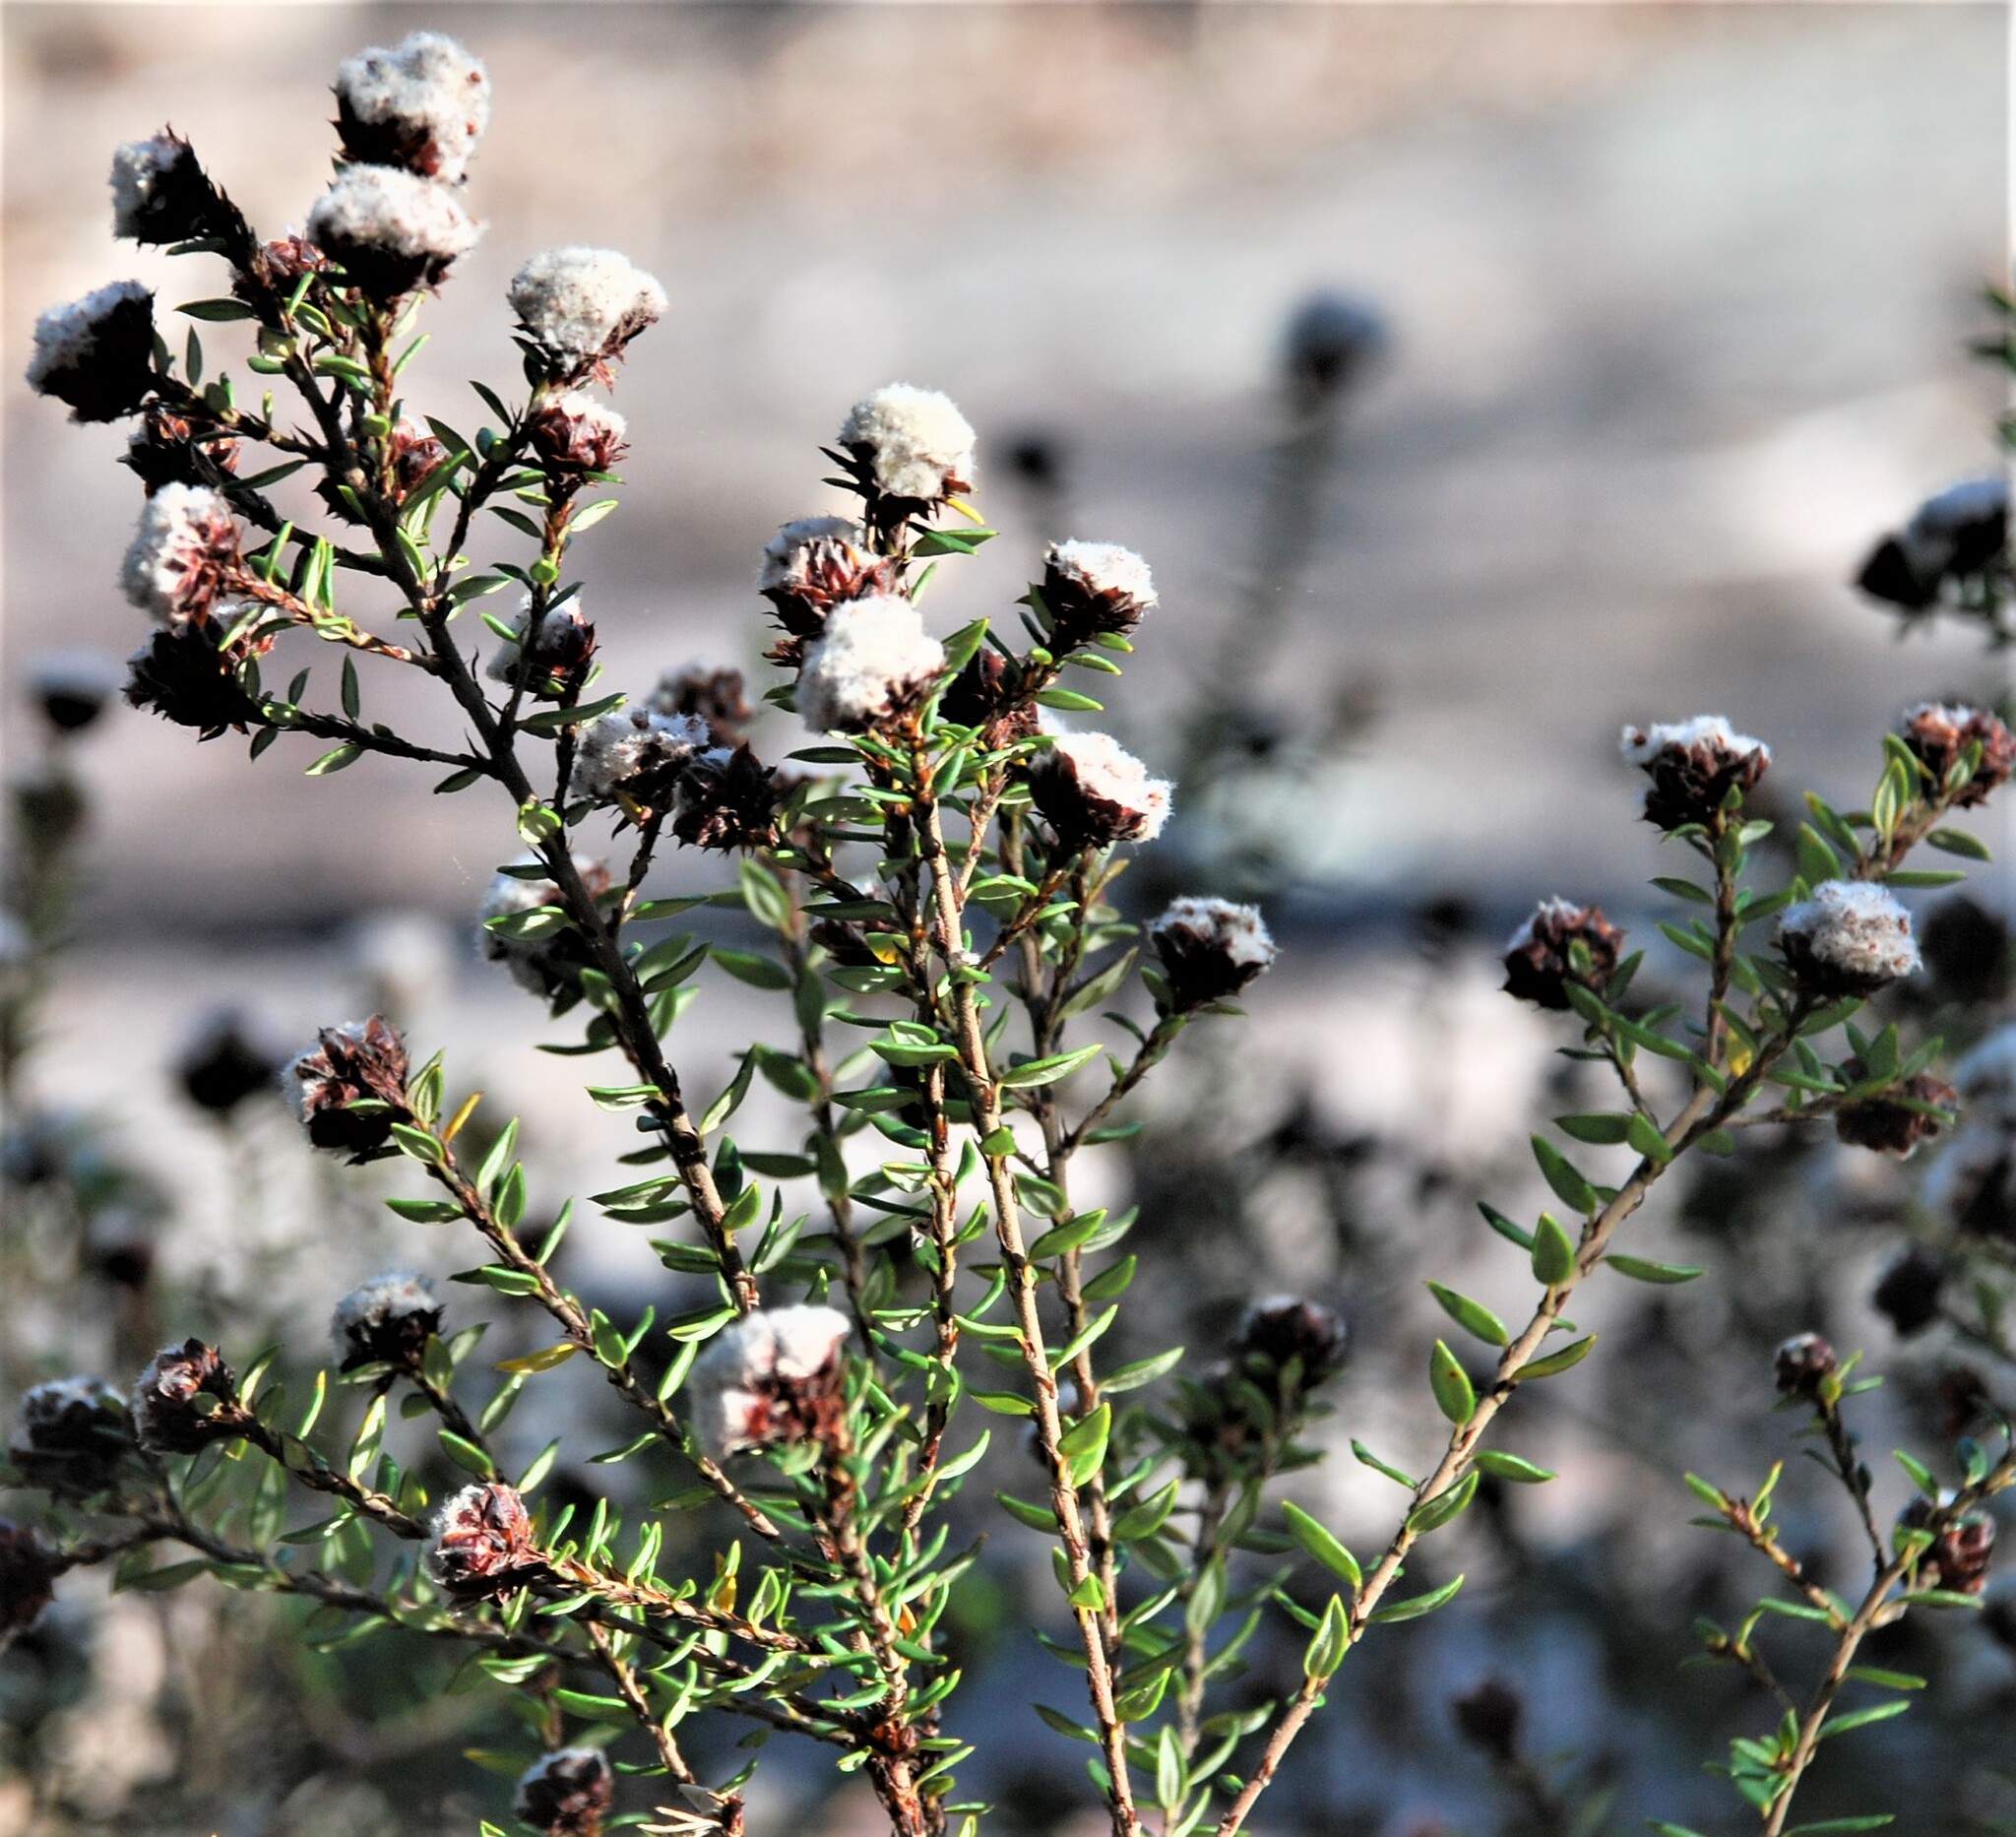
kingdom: Plantae
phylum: Tracheophyta
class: Magnoliopsida
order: Rosales
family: Rhamnaceae
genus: Spyridium
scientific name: Spyridium scortechinii
